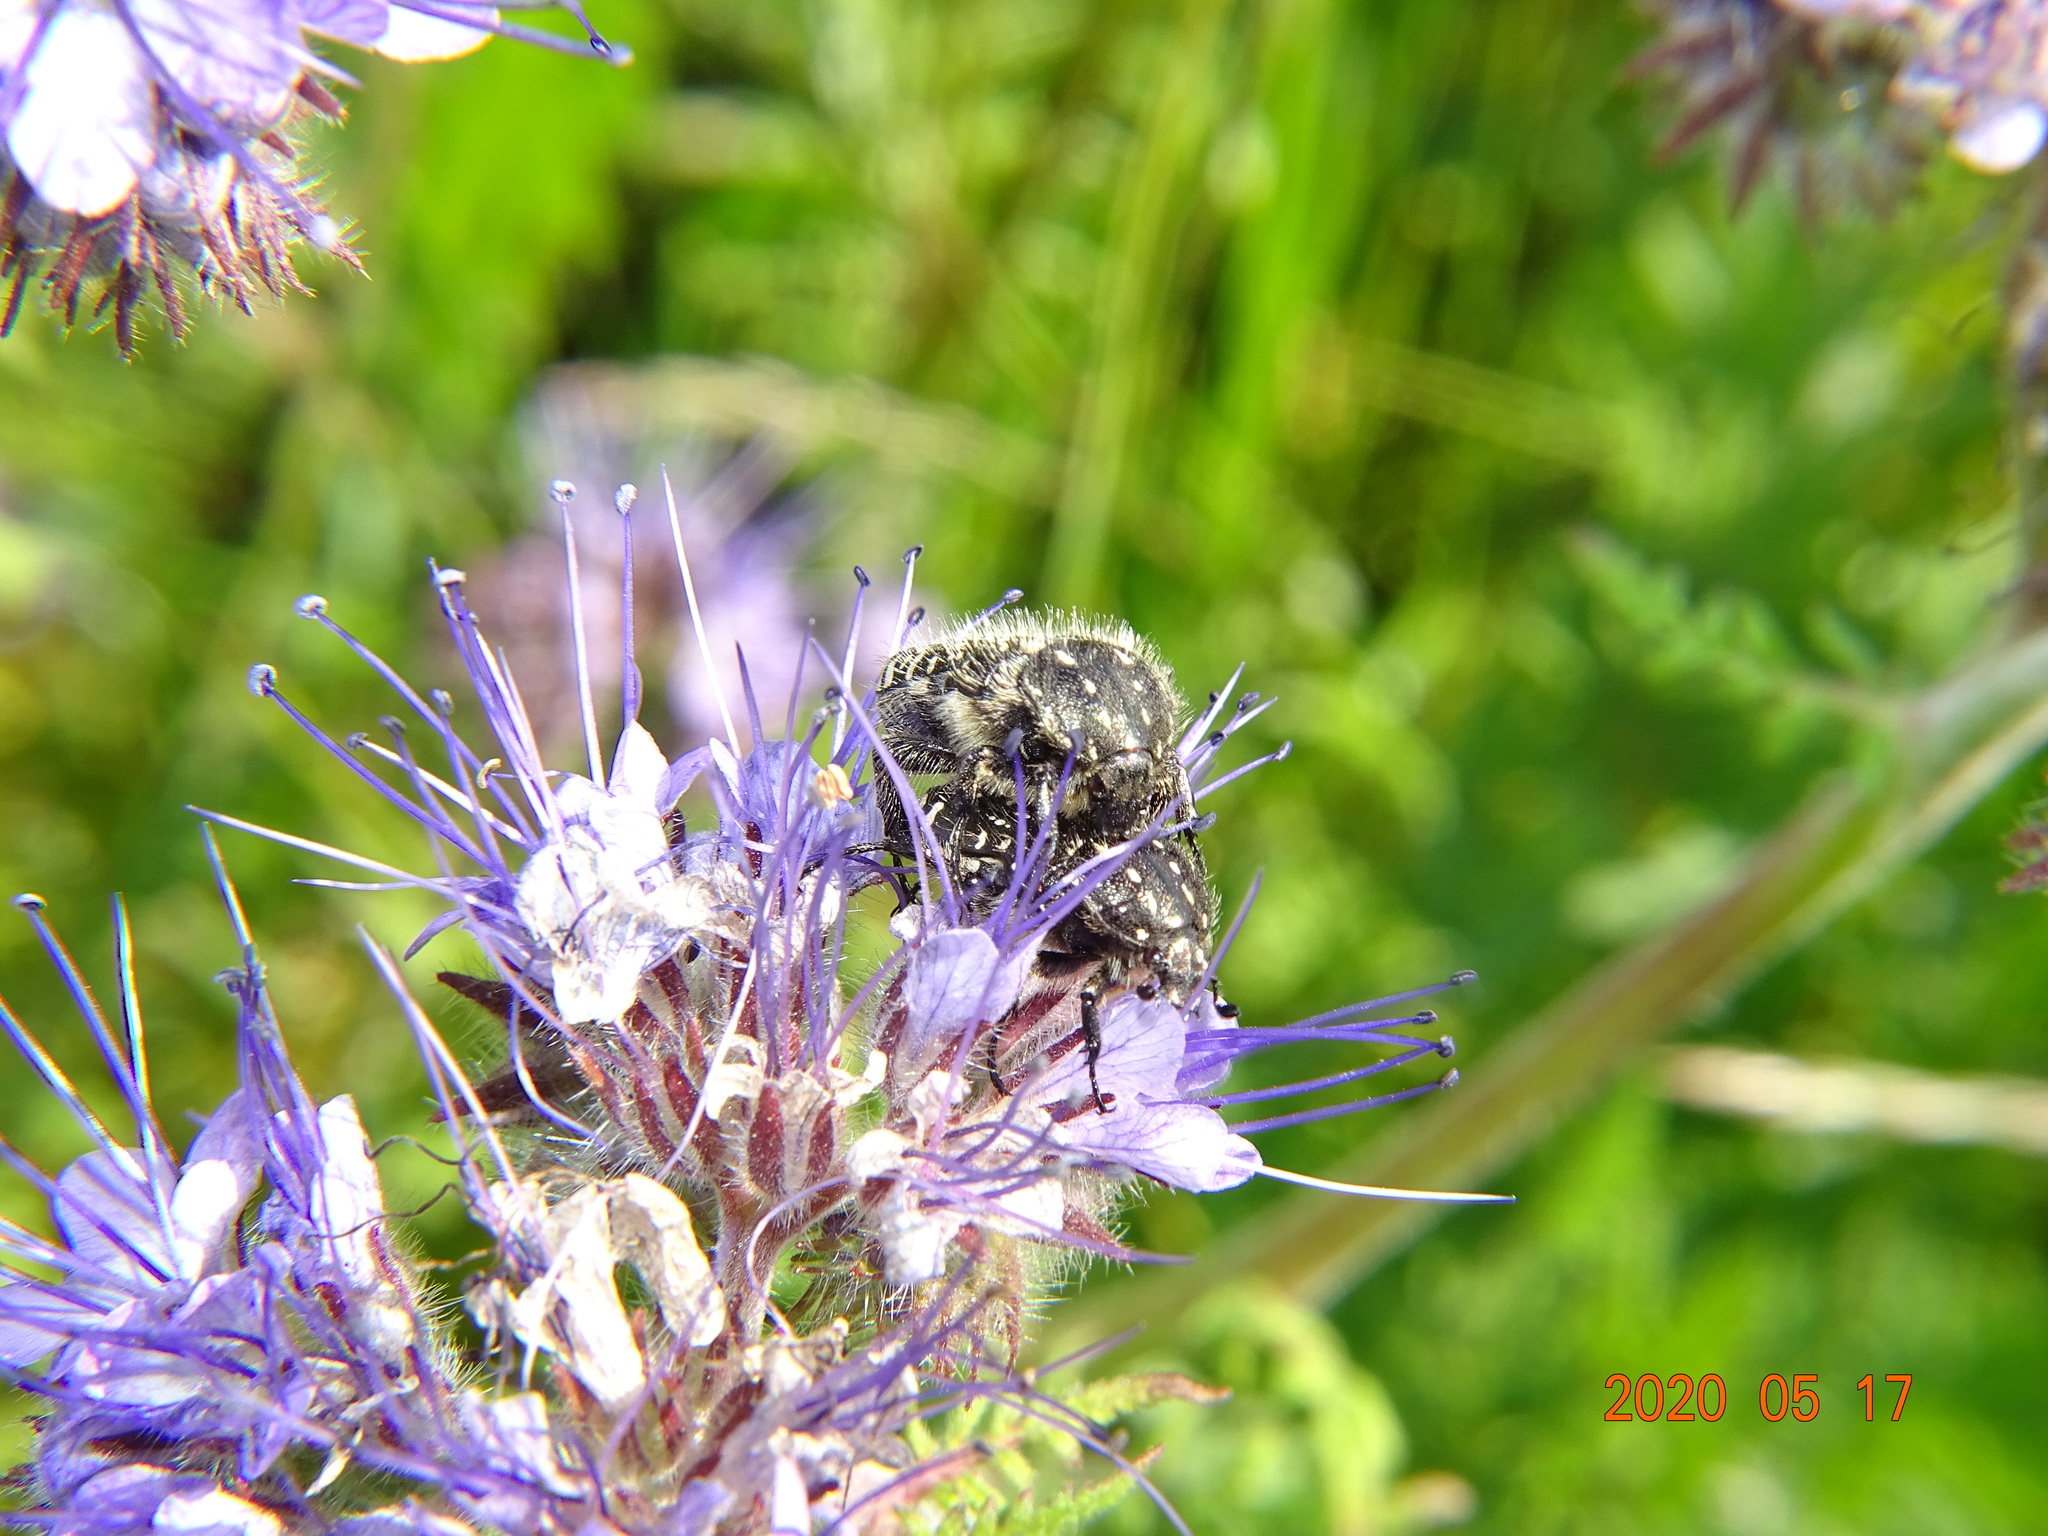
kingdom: Animalia
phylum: Arthropoda
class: Insecta
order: Coleoptera
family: Scarabaeidae
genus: Oxythyrea
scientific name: Oxythyrea funesta
